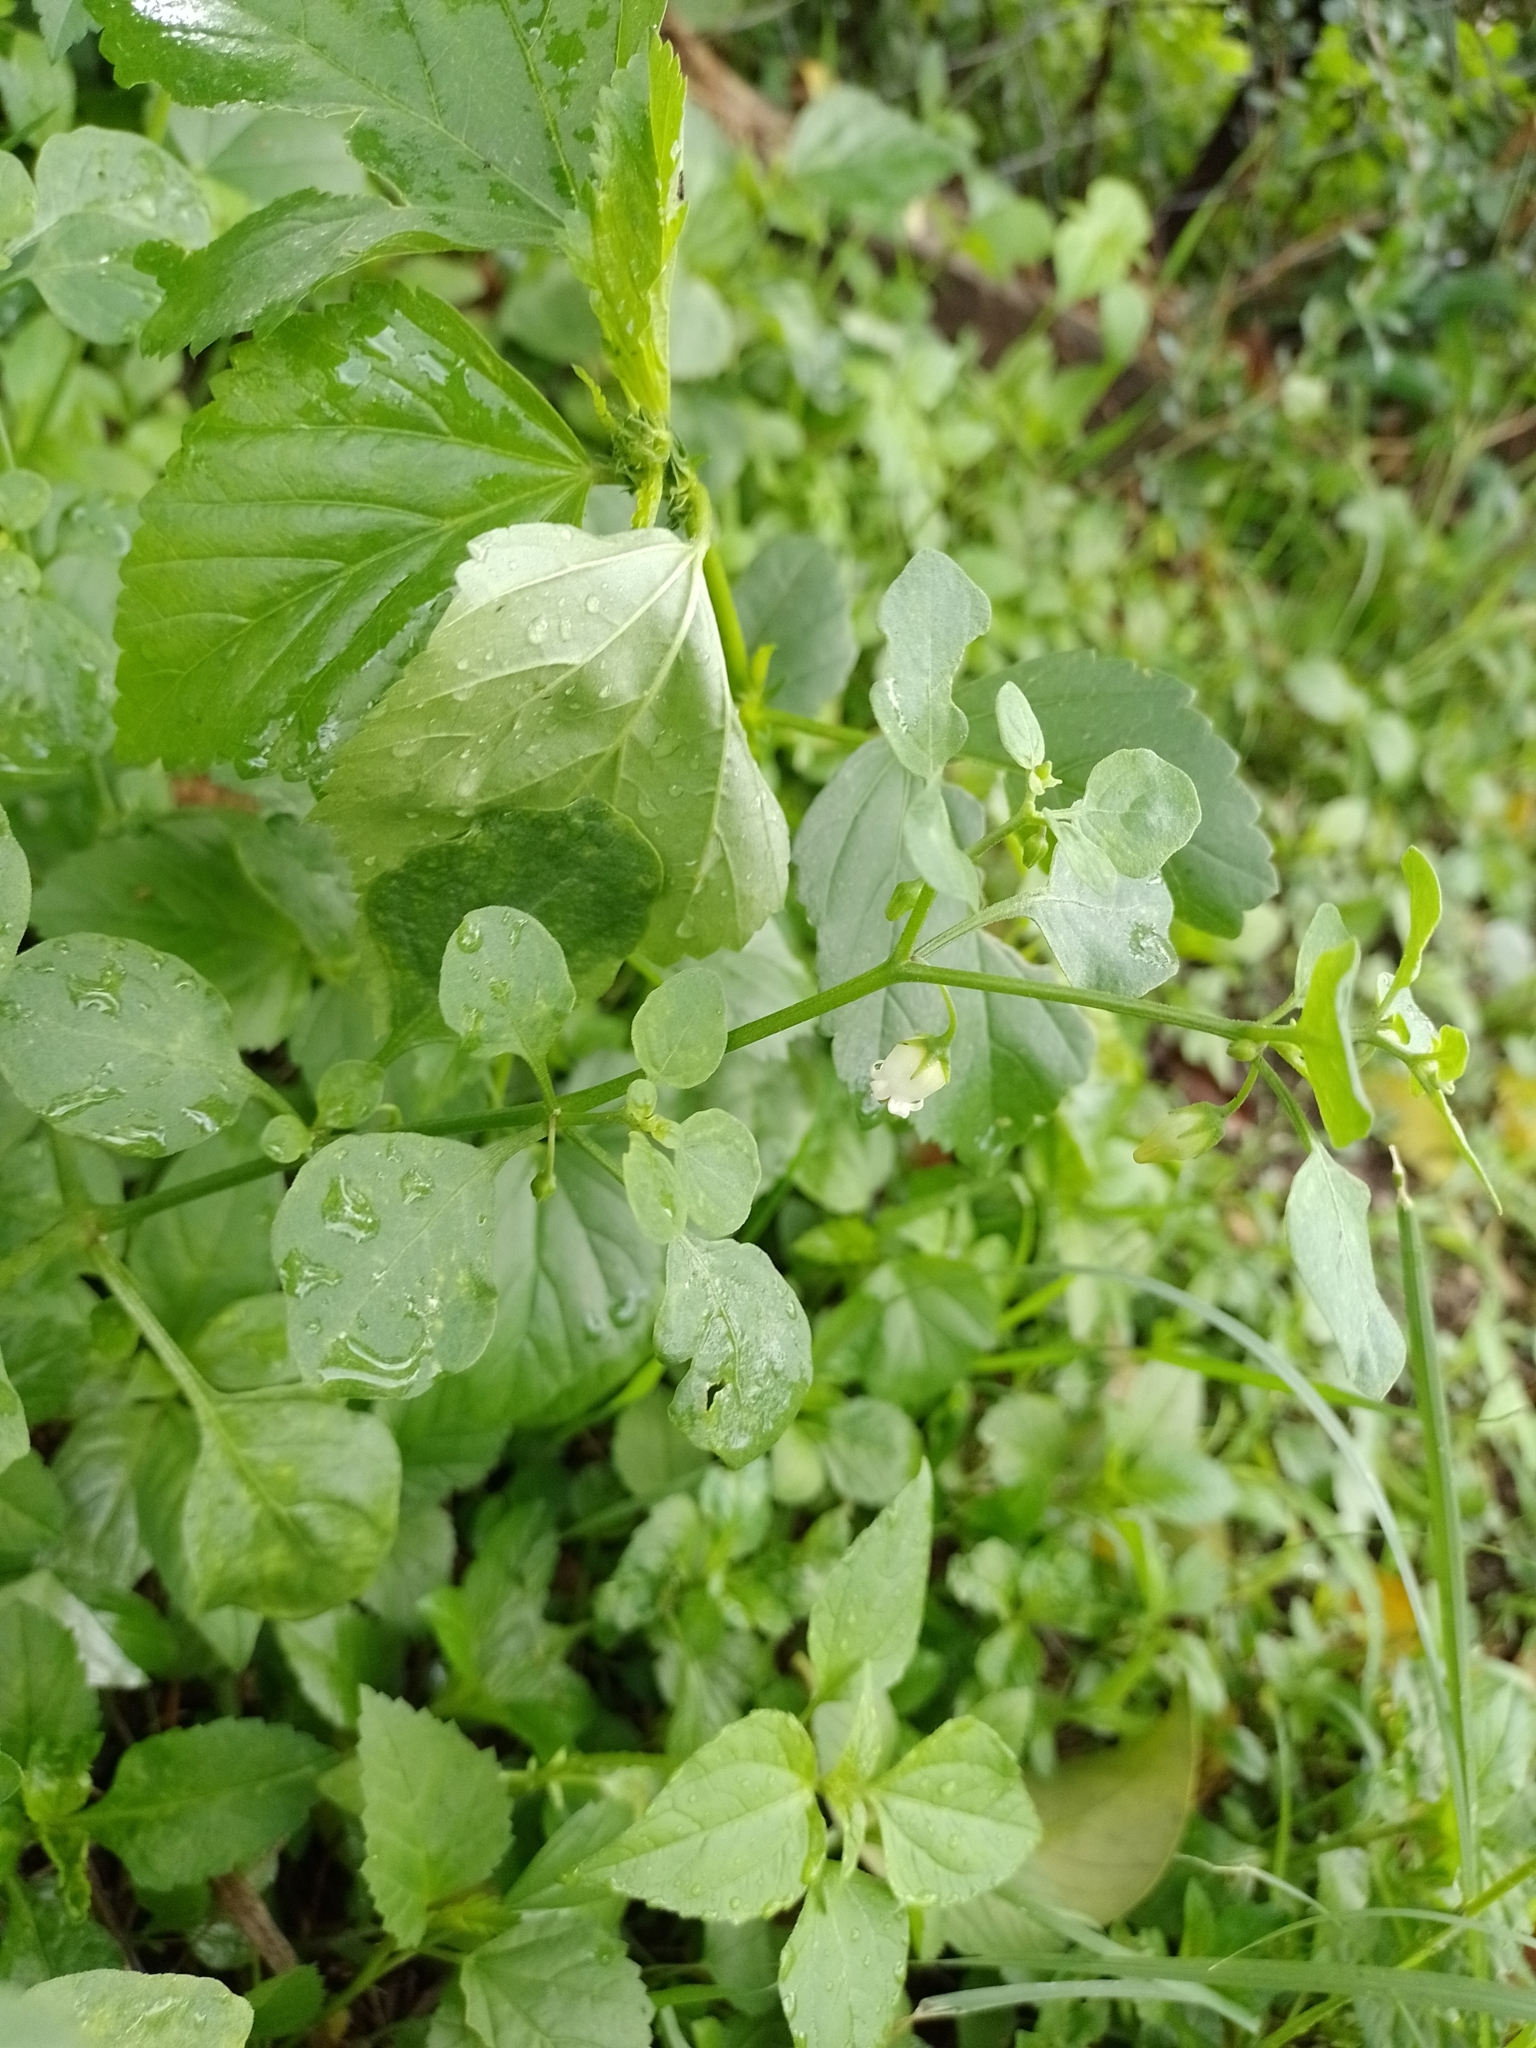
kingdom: Plantae
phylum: Tracheophyta
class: Magnoliopsida
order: Solanales
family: Solanaceae
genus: Salpichroa
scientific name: Salpichroa origanifolia
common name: Lily-of-the-valley-vine
